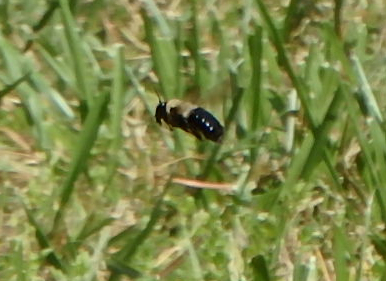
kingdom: Animalia
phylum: Arthropoda
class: Insecta
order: Hymenoptera
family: Apidae
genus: Xylocopa
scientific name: Xylocopa virginica
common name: Carpenter bee
